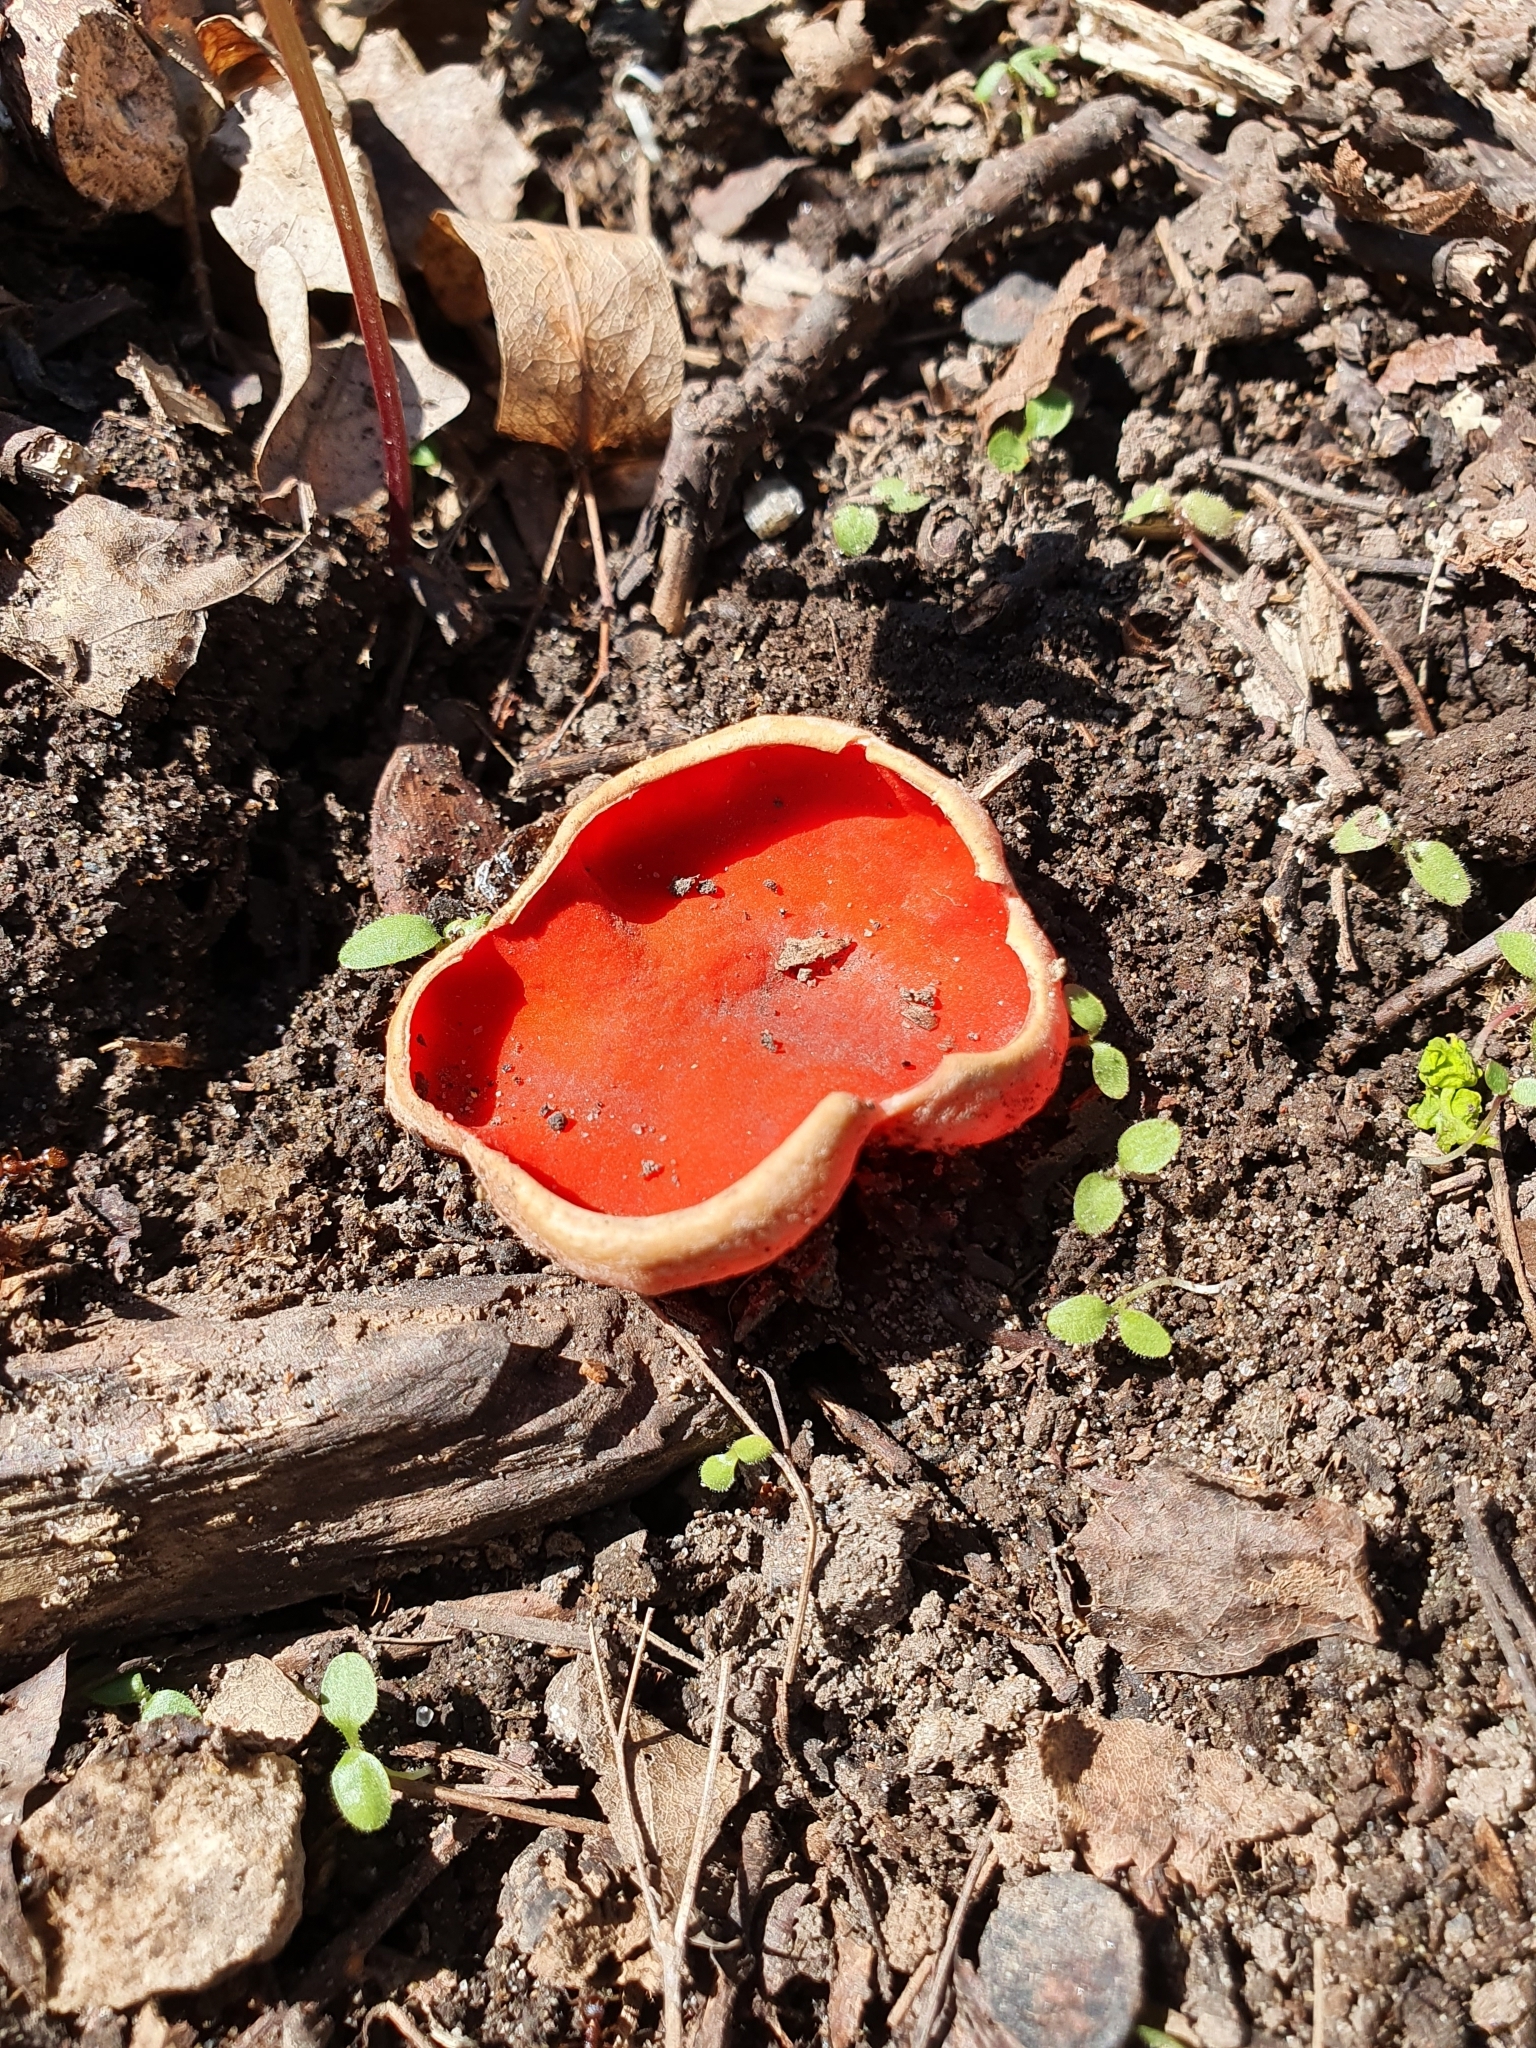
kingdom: Fungi
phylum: Ascomycota
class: Pezizomycetes
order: Pezizales
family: Sarcoscyphaceae
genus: Sarcoscypha
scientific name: Sarcoscypha
